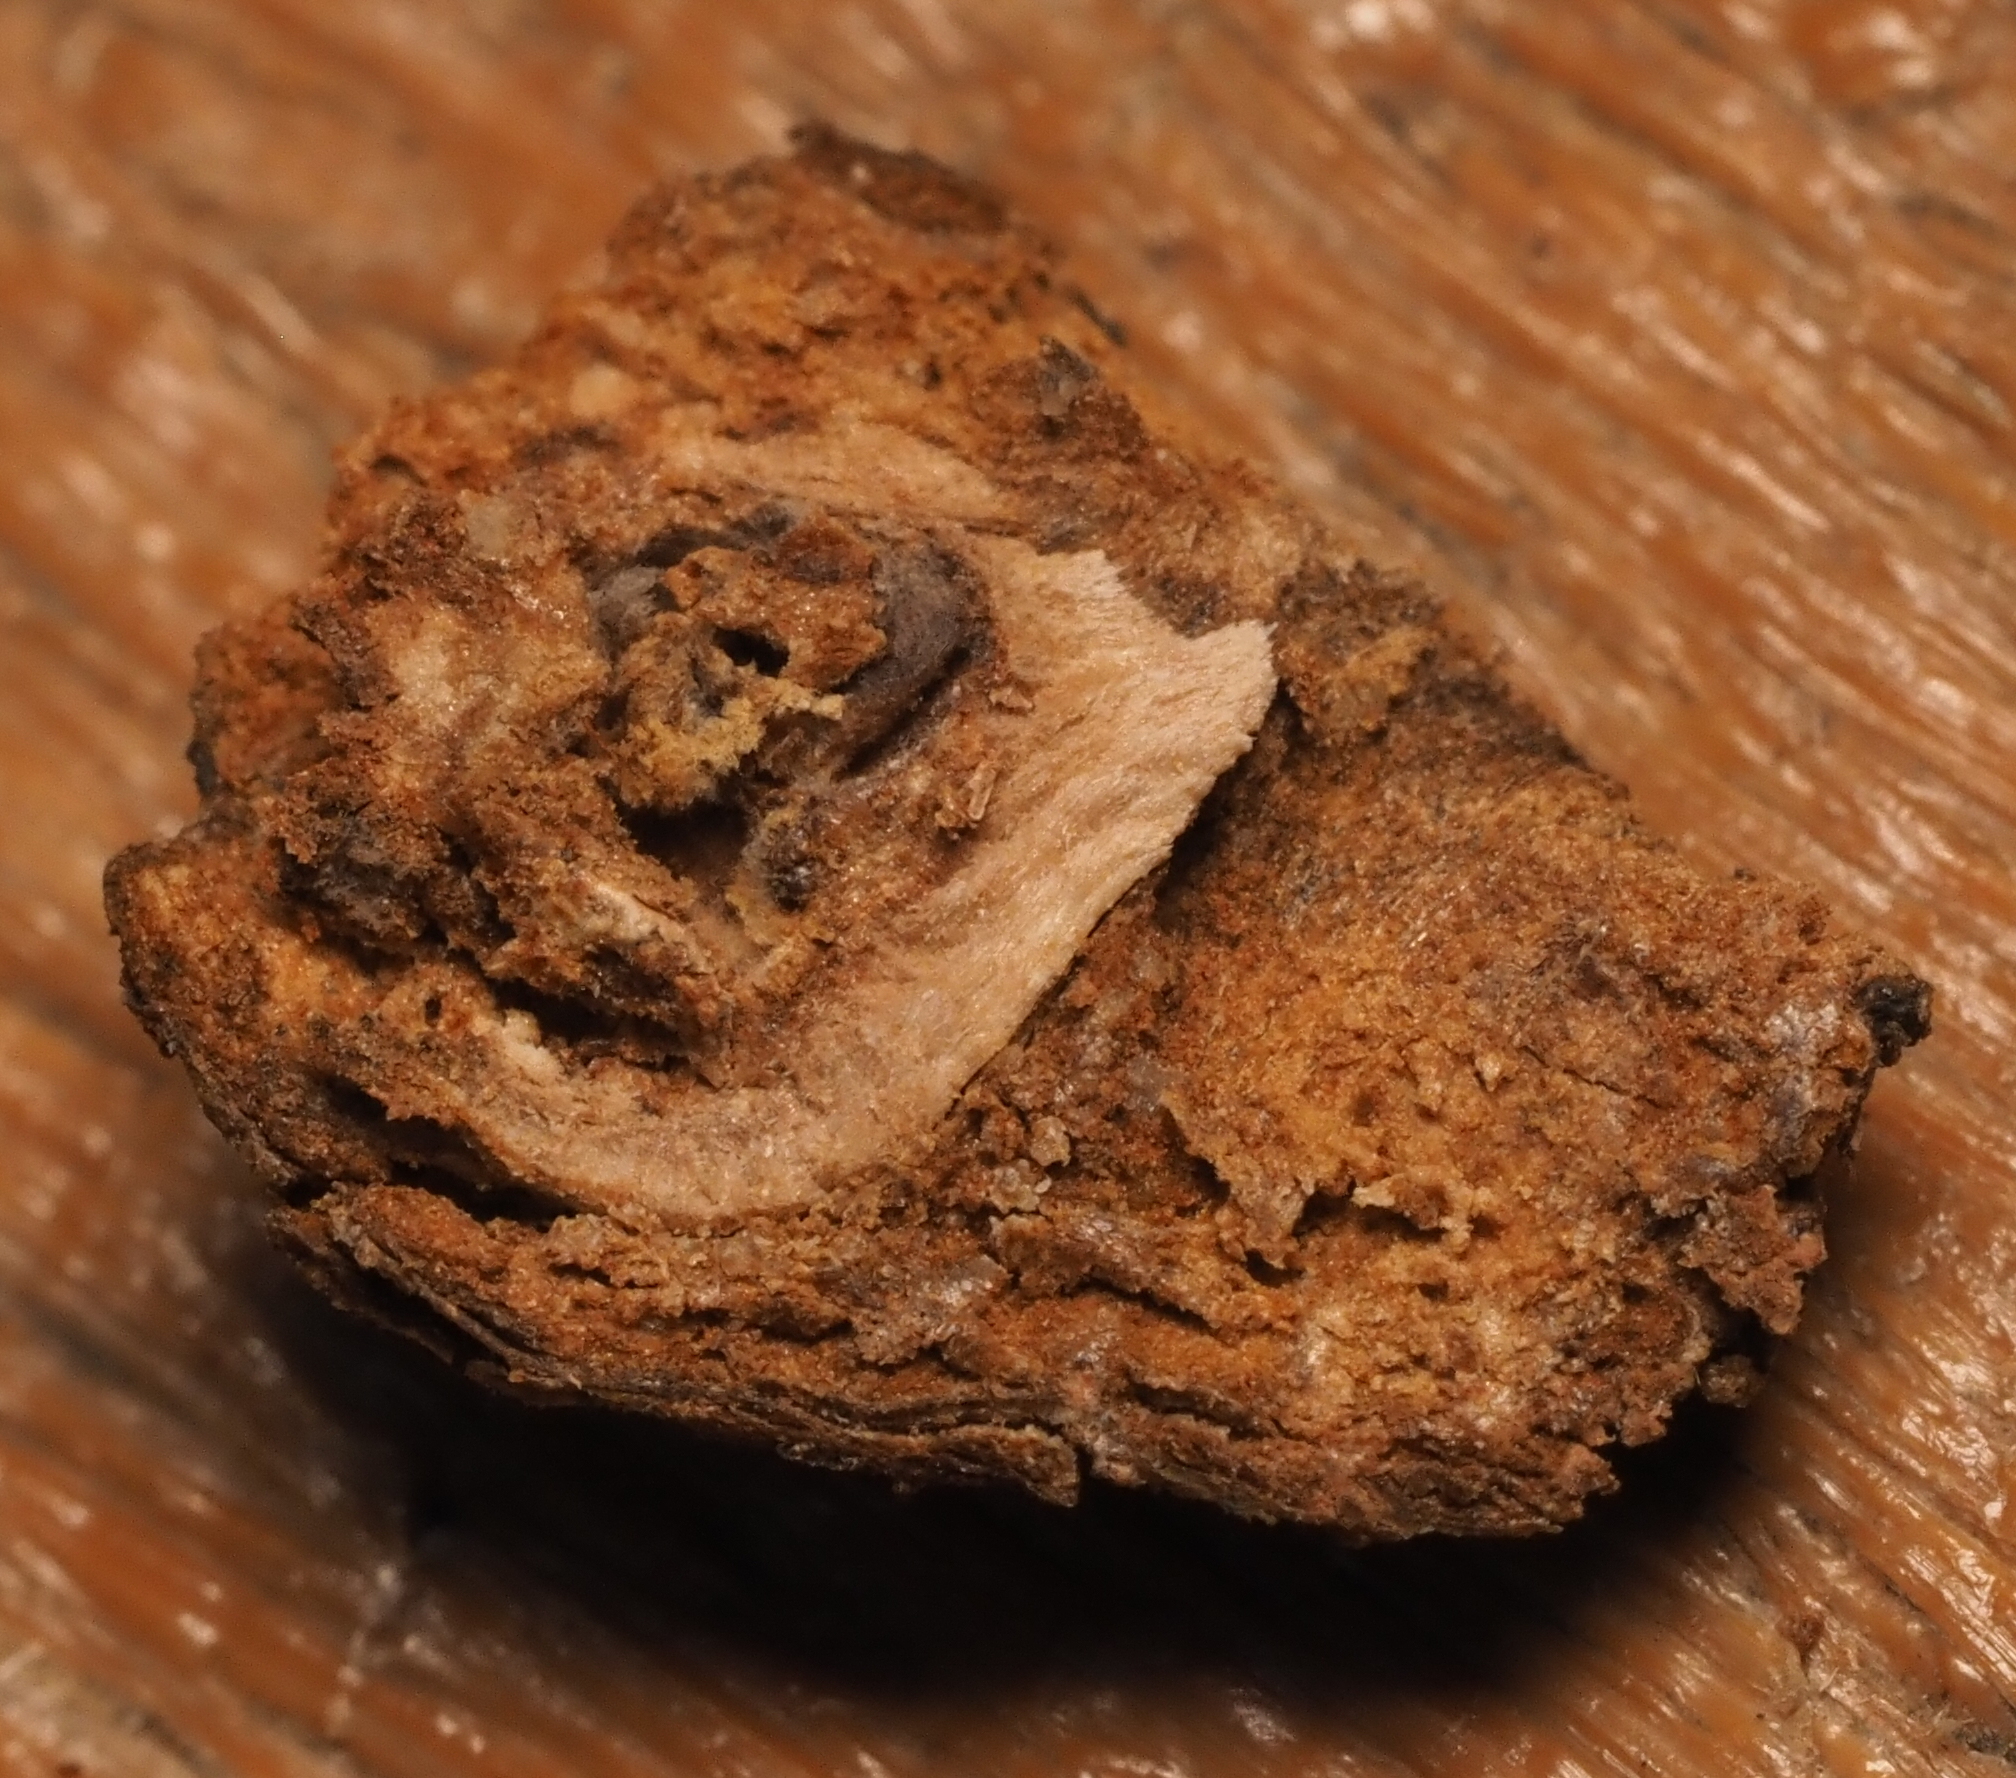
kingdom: Animalia
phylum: Arthropoda
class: Insecta
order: Hymenoptera
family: Cynipidae
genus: Callirhytis
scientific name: Callirhytis
